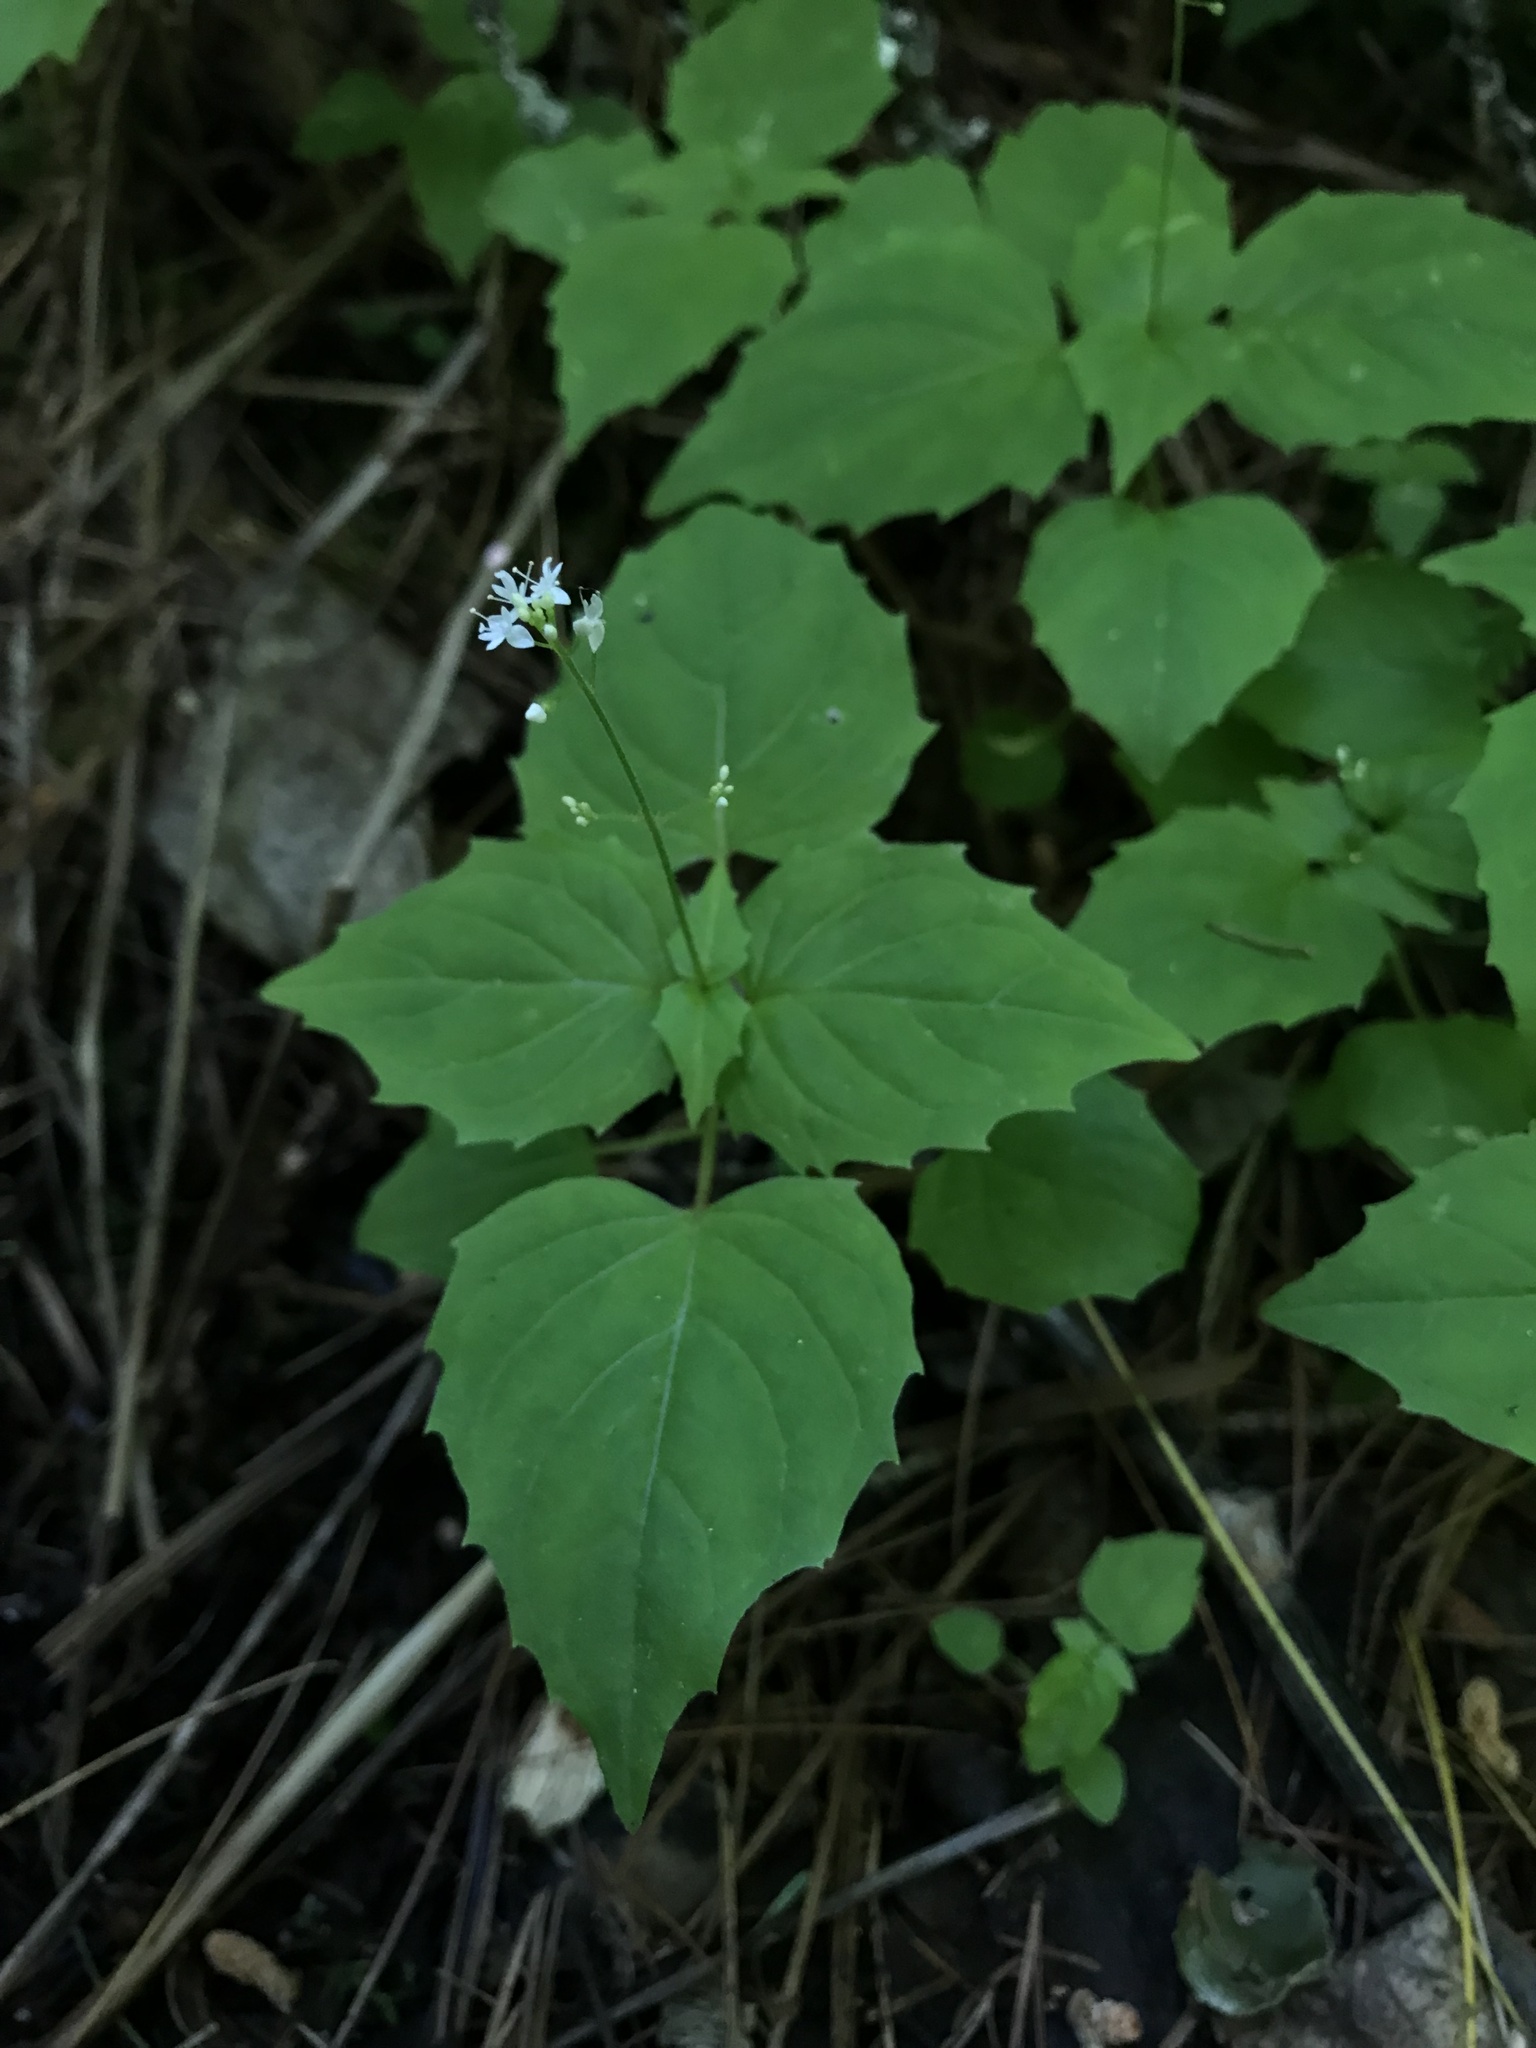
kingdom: Plantae
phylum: Tracheophyta
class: Magnoliopsida
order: Myrtales
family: Onagraceae
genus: Circaea
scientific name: Circaea alpina
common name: Alpine enchanter's-nightshade
